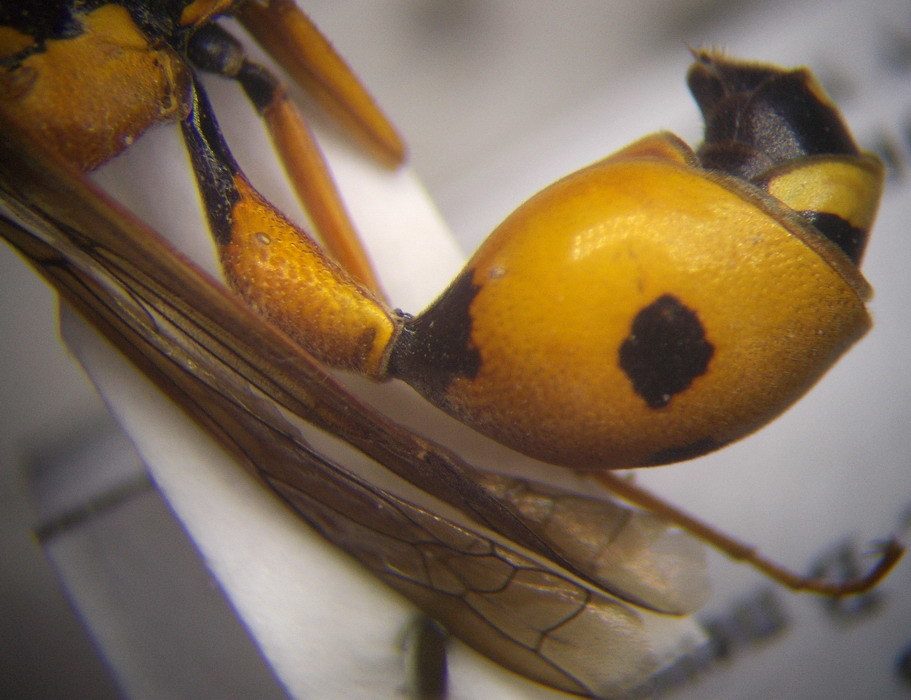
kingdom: Animalia
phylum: Arthropoda
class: Insecta
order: Hymenoptera
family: Vespidae
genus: Eumenes
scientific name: Eumenes tripunctatus
